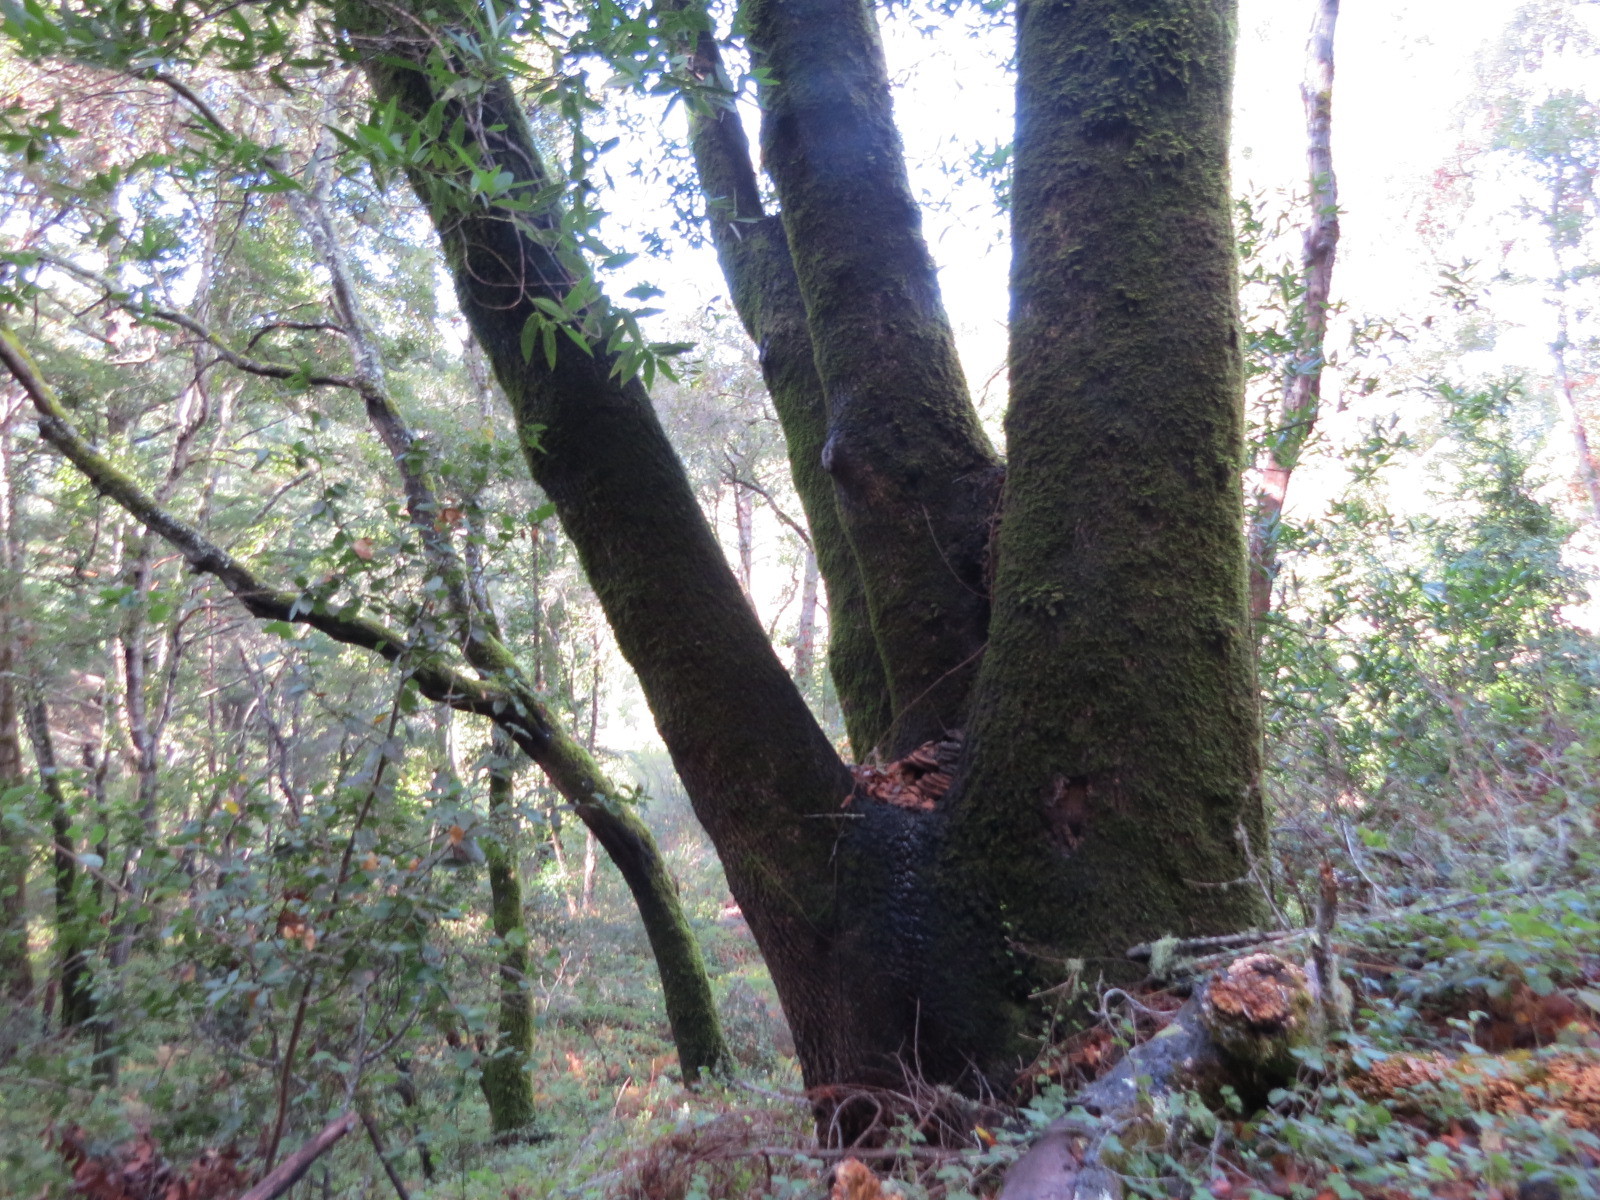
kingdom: Plantae
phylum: Tracheophyta
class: Magnoliopsida
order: Laurales
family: Lauraceae
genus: Umbellularia
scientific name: Umbellularia californica
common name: California bay
